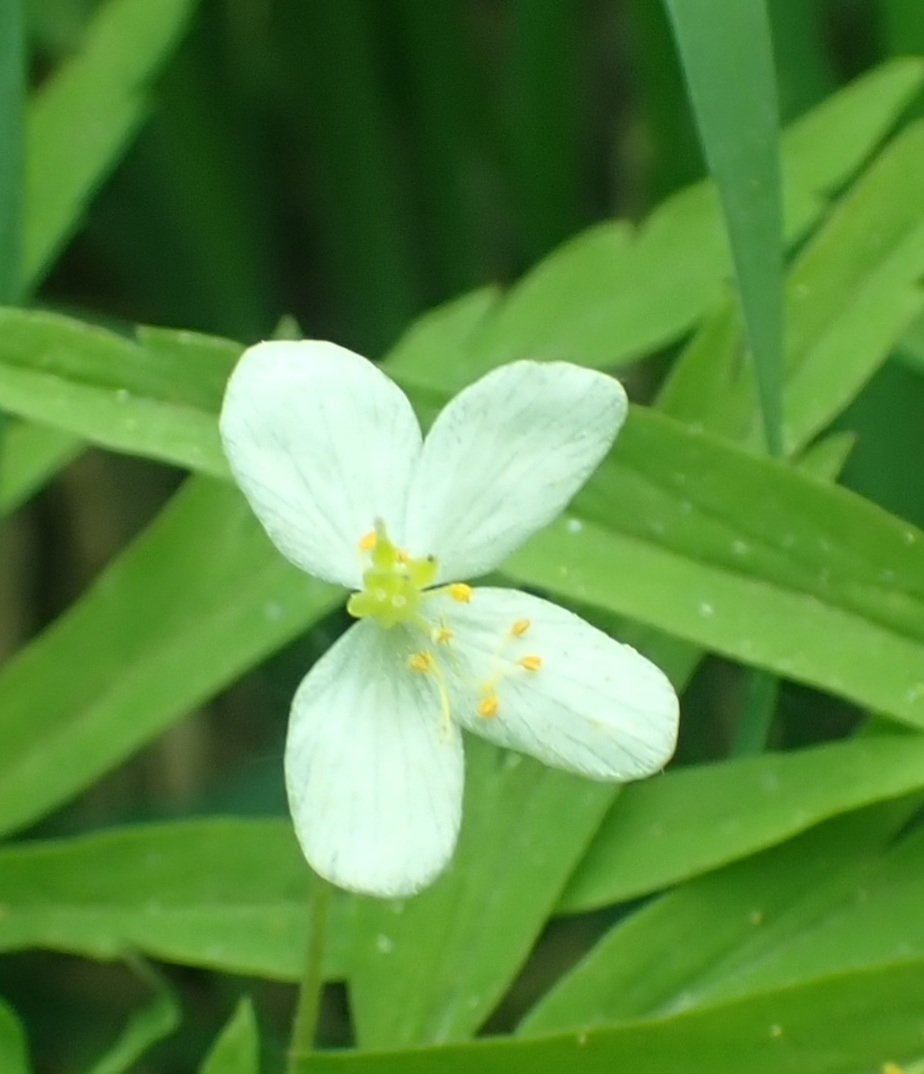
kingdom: Plantae
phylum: Tracheophyta
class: Magnoliopsida
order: Ranunculales
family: Ranunculaceae
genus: Anemone
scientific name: Anemone caerulea
